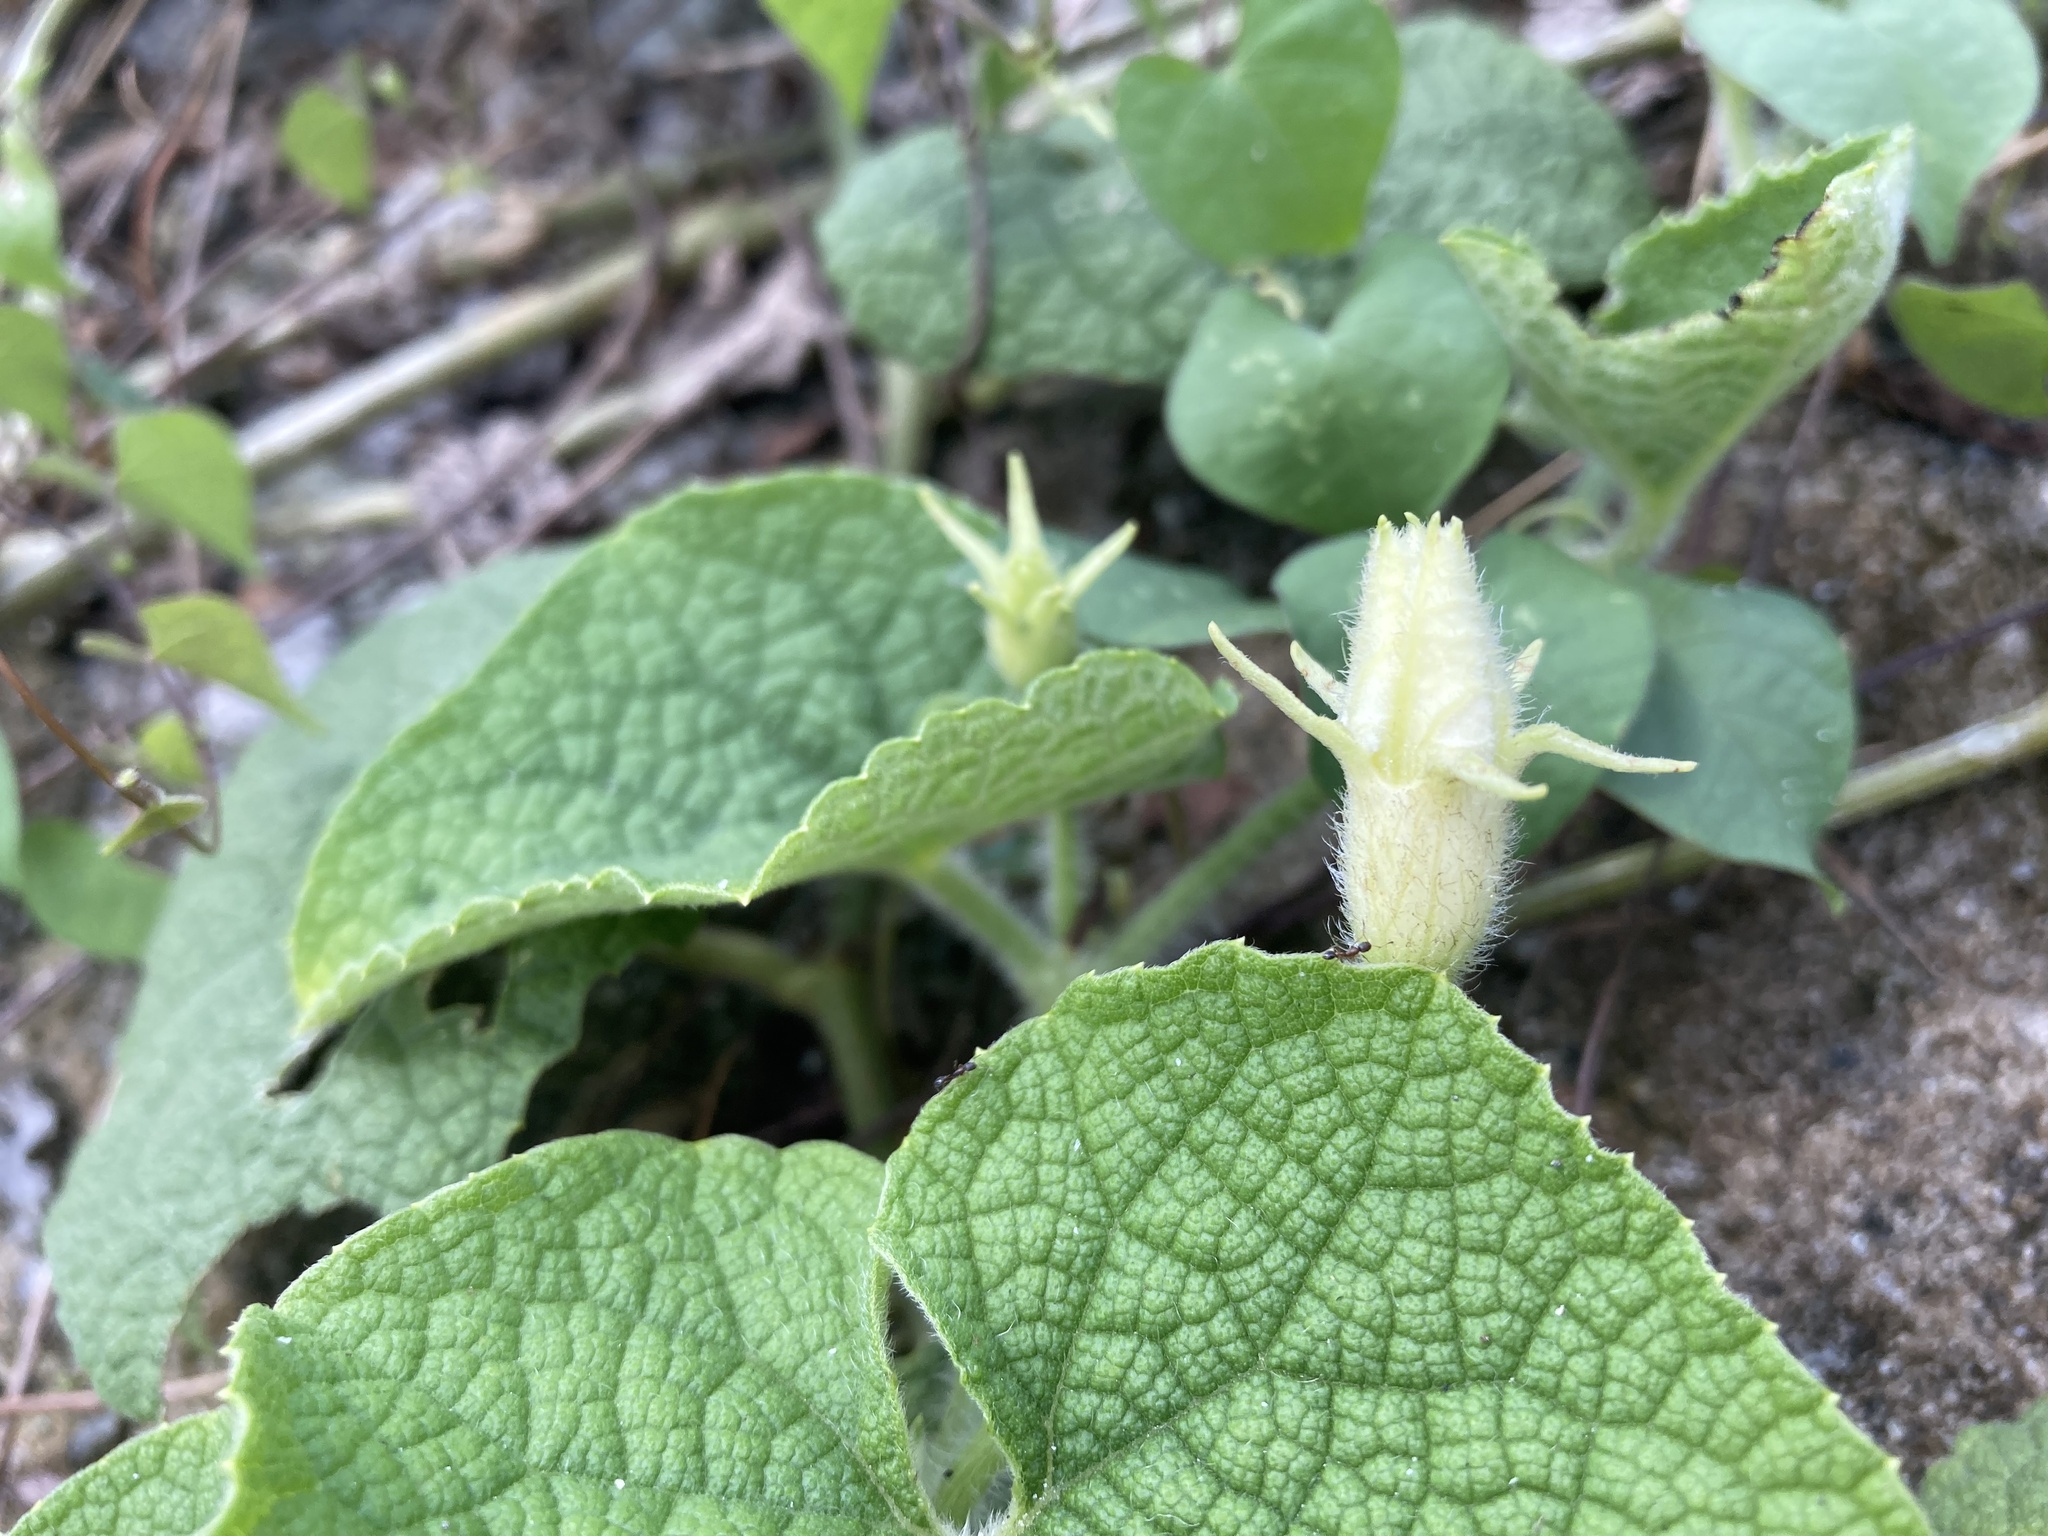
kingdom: Plantae
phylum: Tracheophyta
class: Magnoliopsida
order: Cucurbitales
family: Cucurbitaceae
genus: Trichosanthes
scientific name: Trichosanthes scabra
